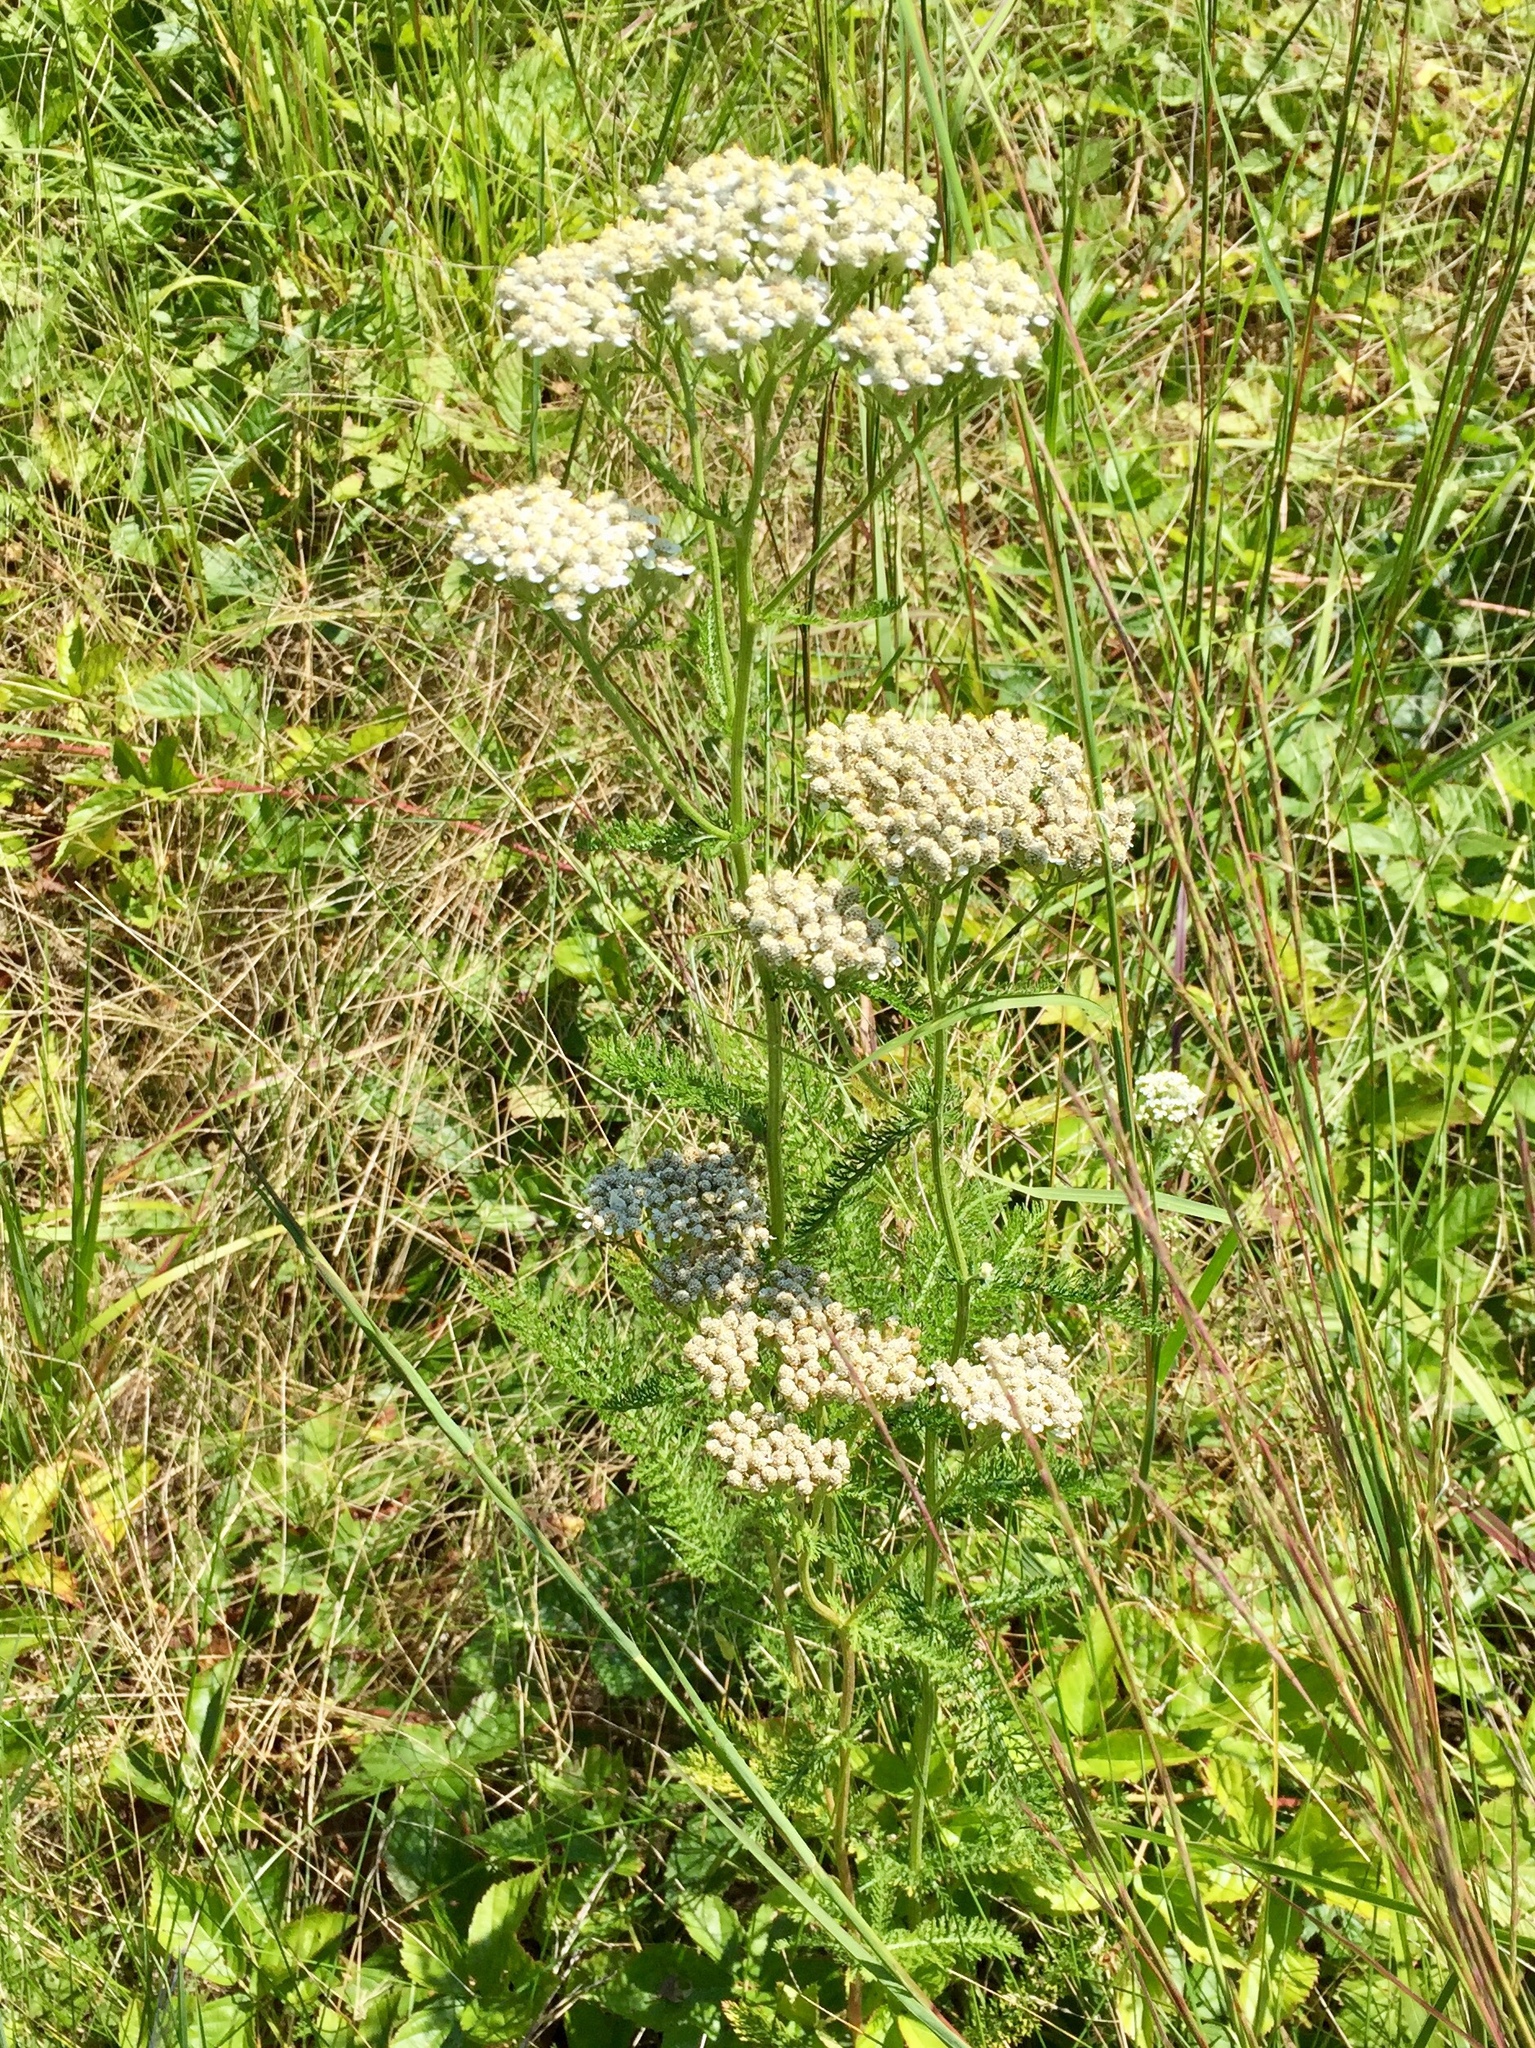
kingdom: Plantae
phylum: Tracheophyta
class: Magnoliopsida
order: Asterales
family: Asteraceae
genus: Achillea
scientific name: Achillea millefolium
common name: Yarrow
